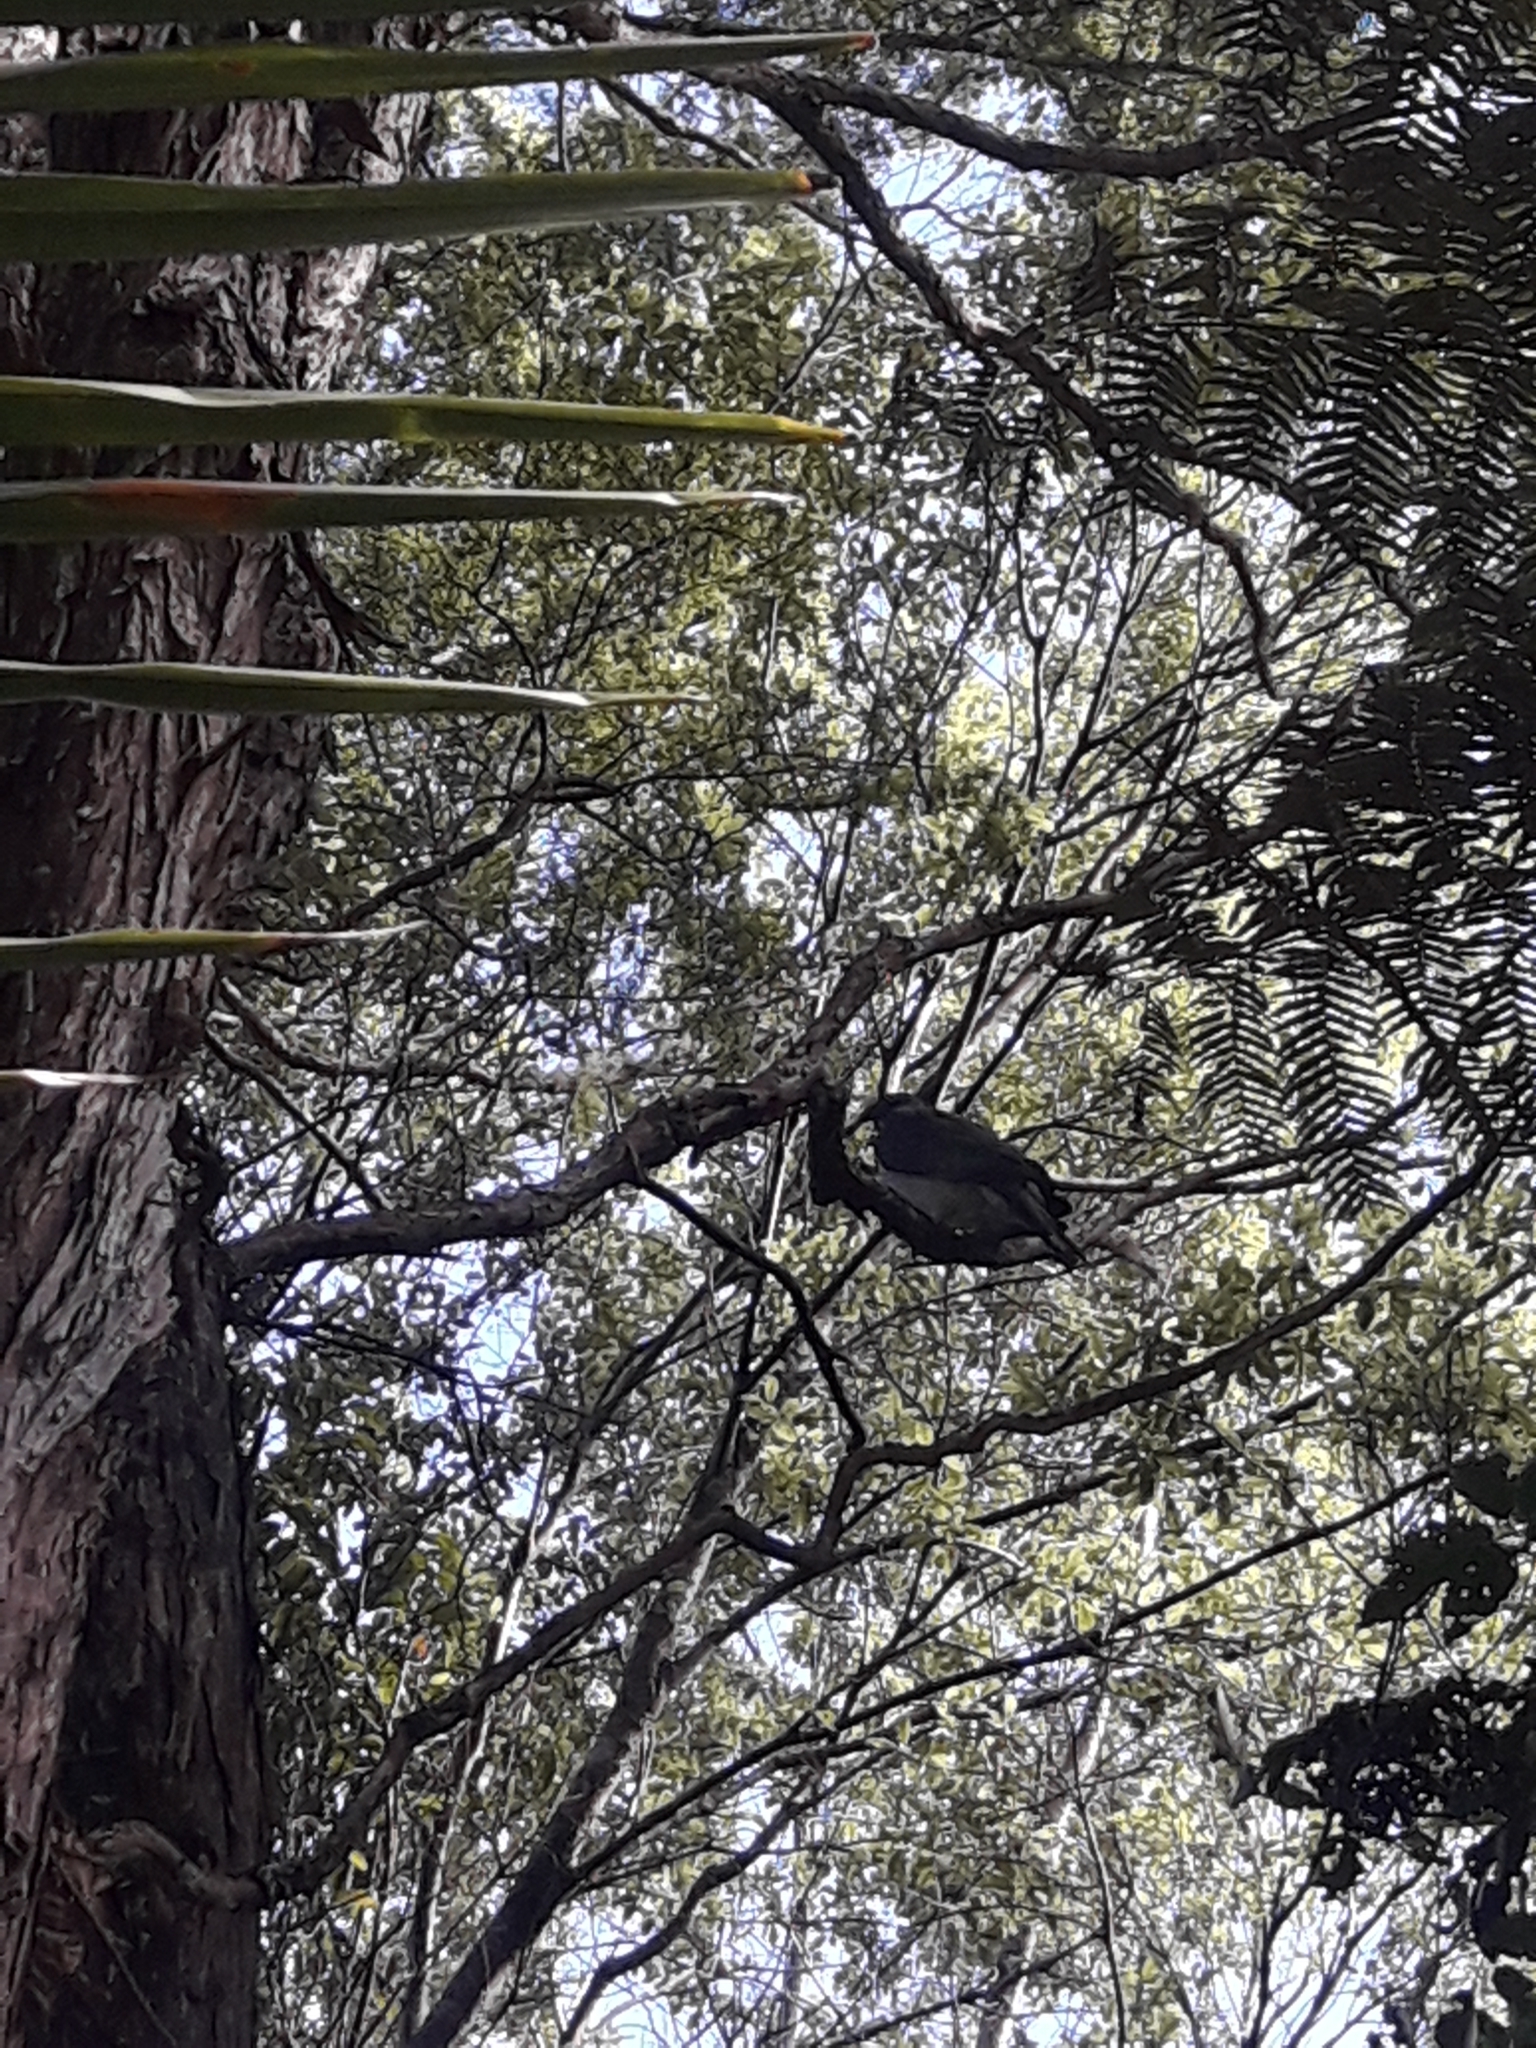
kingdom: Animalia
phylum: Chordata
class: Aves
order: Columbiformes
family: Columbidae
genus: Hemiphaga
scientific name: Hemiphaga novaeseelandiae
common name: New zealand pigeon
